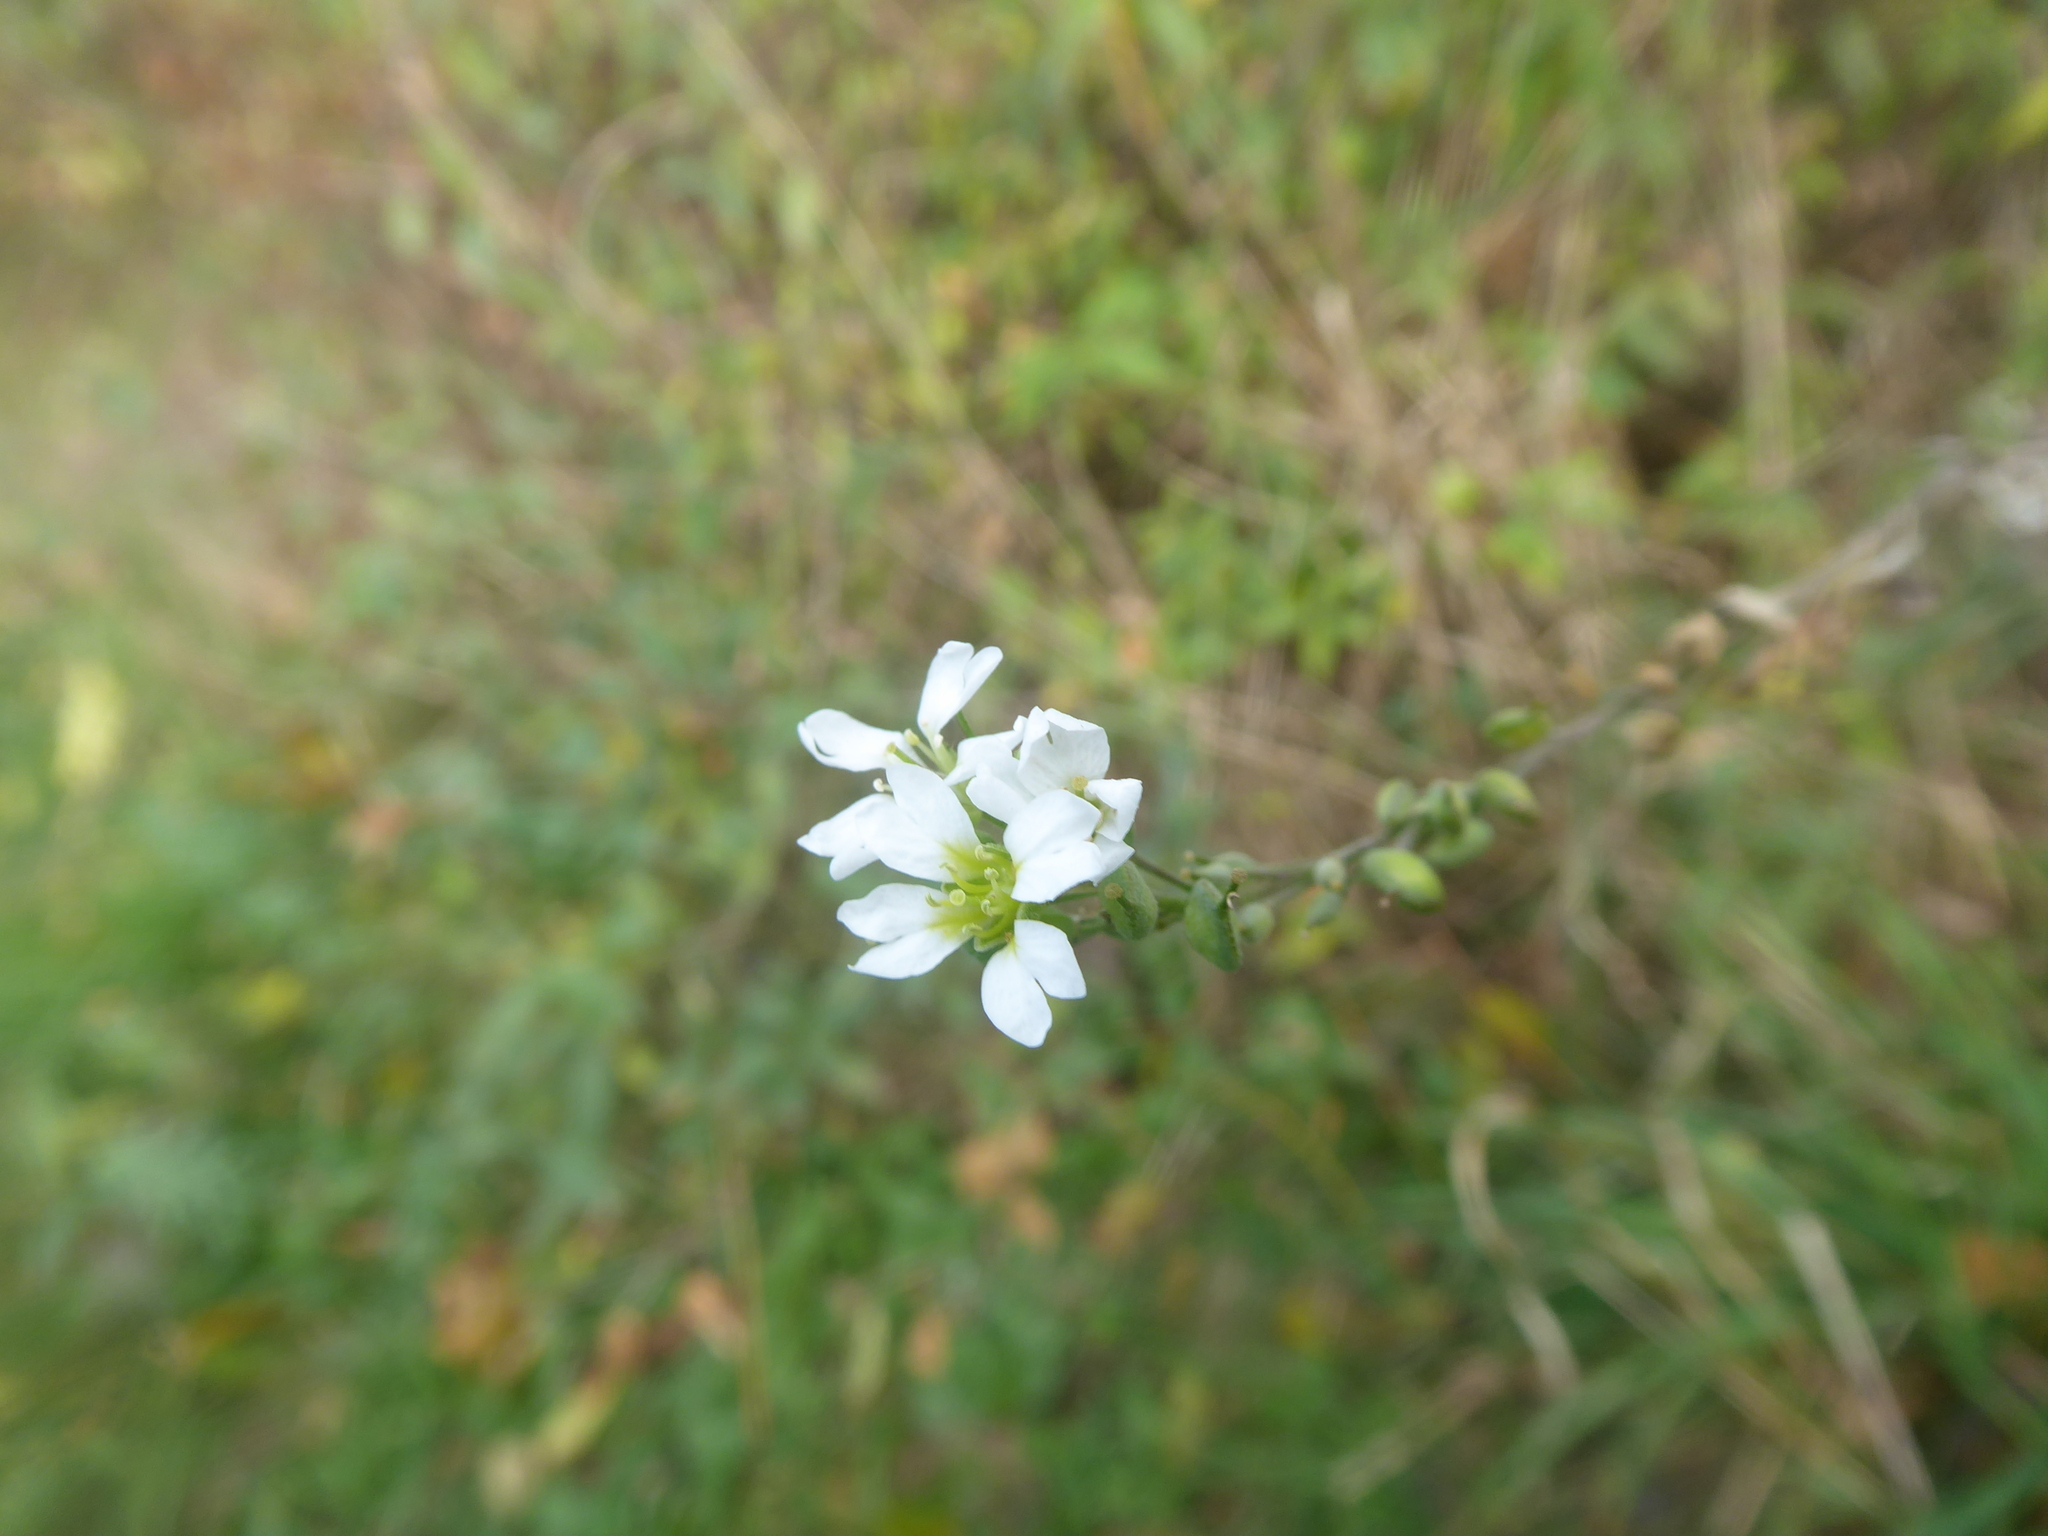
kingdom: Plantae
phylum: Tracheophyta
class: Magnoliopsida
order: Brassicales
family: Brassicaceae
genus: Berteroa
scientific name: Berteroa incana
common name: Hoary alison
